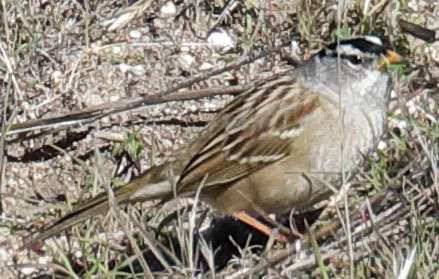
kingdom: Animalia
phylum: Chordata
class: Aves
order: Passeriformes
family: Passerellidae
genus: Zonotrichia
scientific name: Zonotrichia leucophrys
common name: White-crowned sparrow
